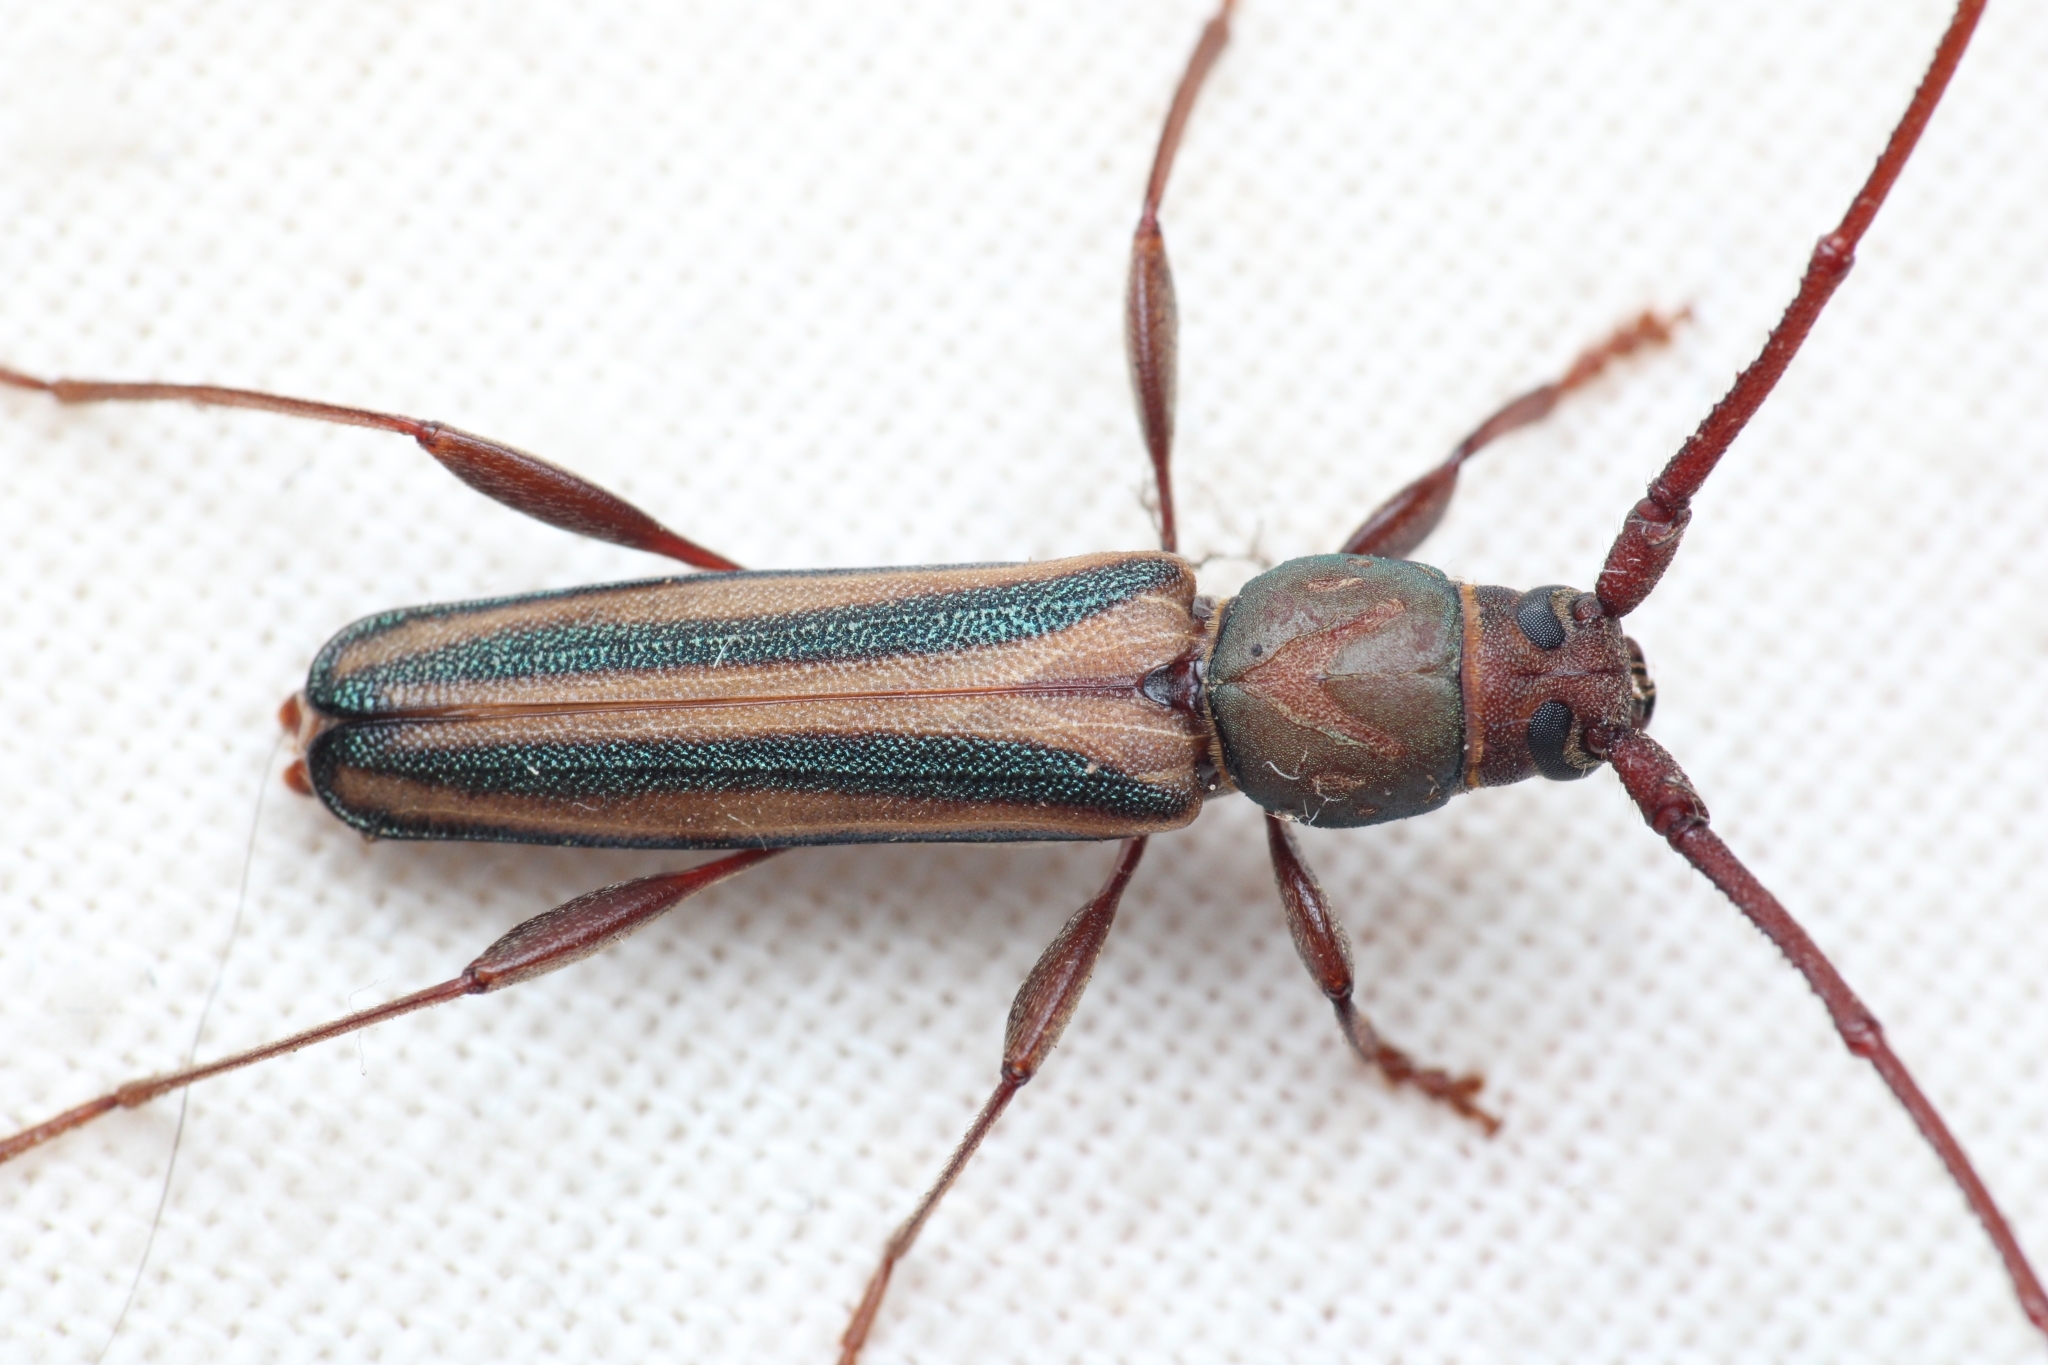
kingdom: Animalia
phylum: Arthropoda
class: Insecta
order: Coleoptera
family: Cerambycidae
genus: Xystrocera
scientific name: Xystrocera dispar
